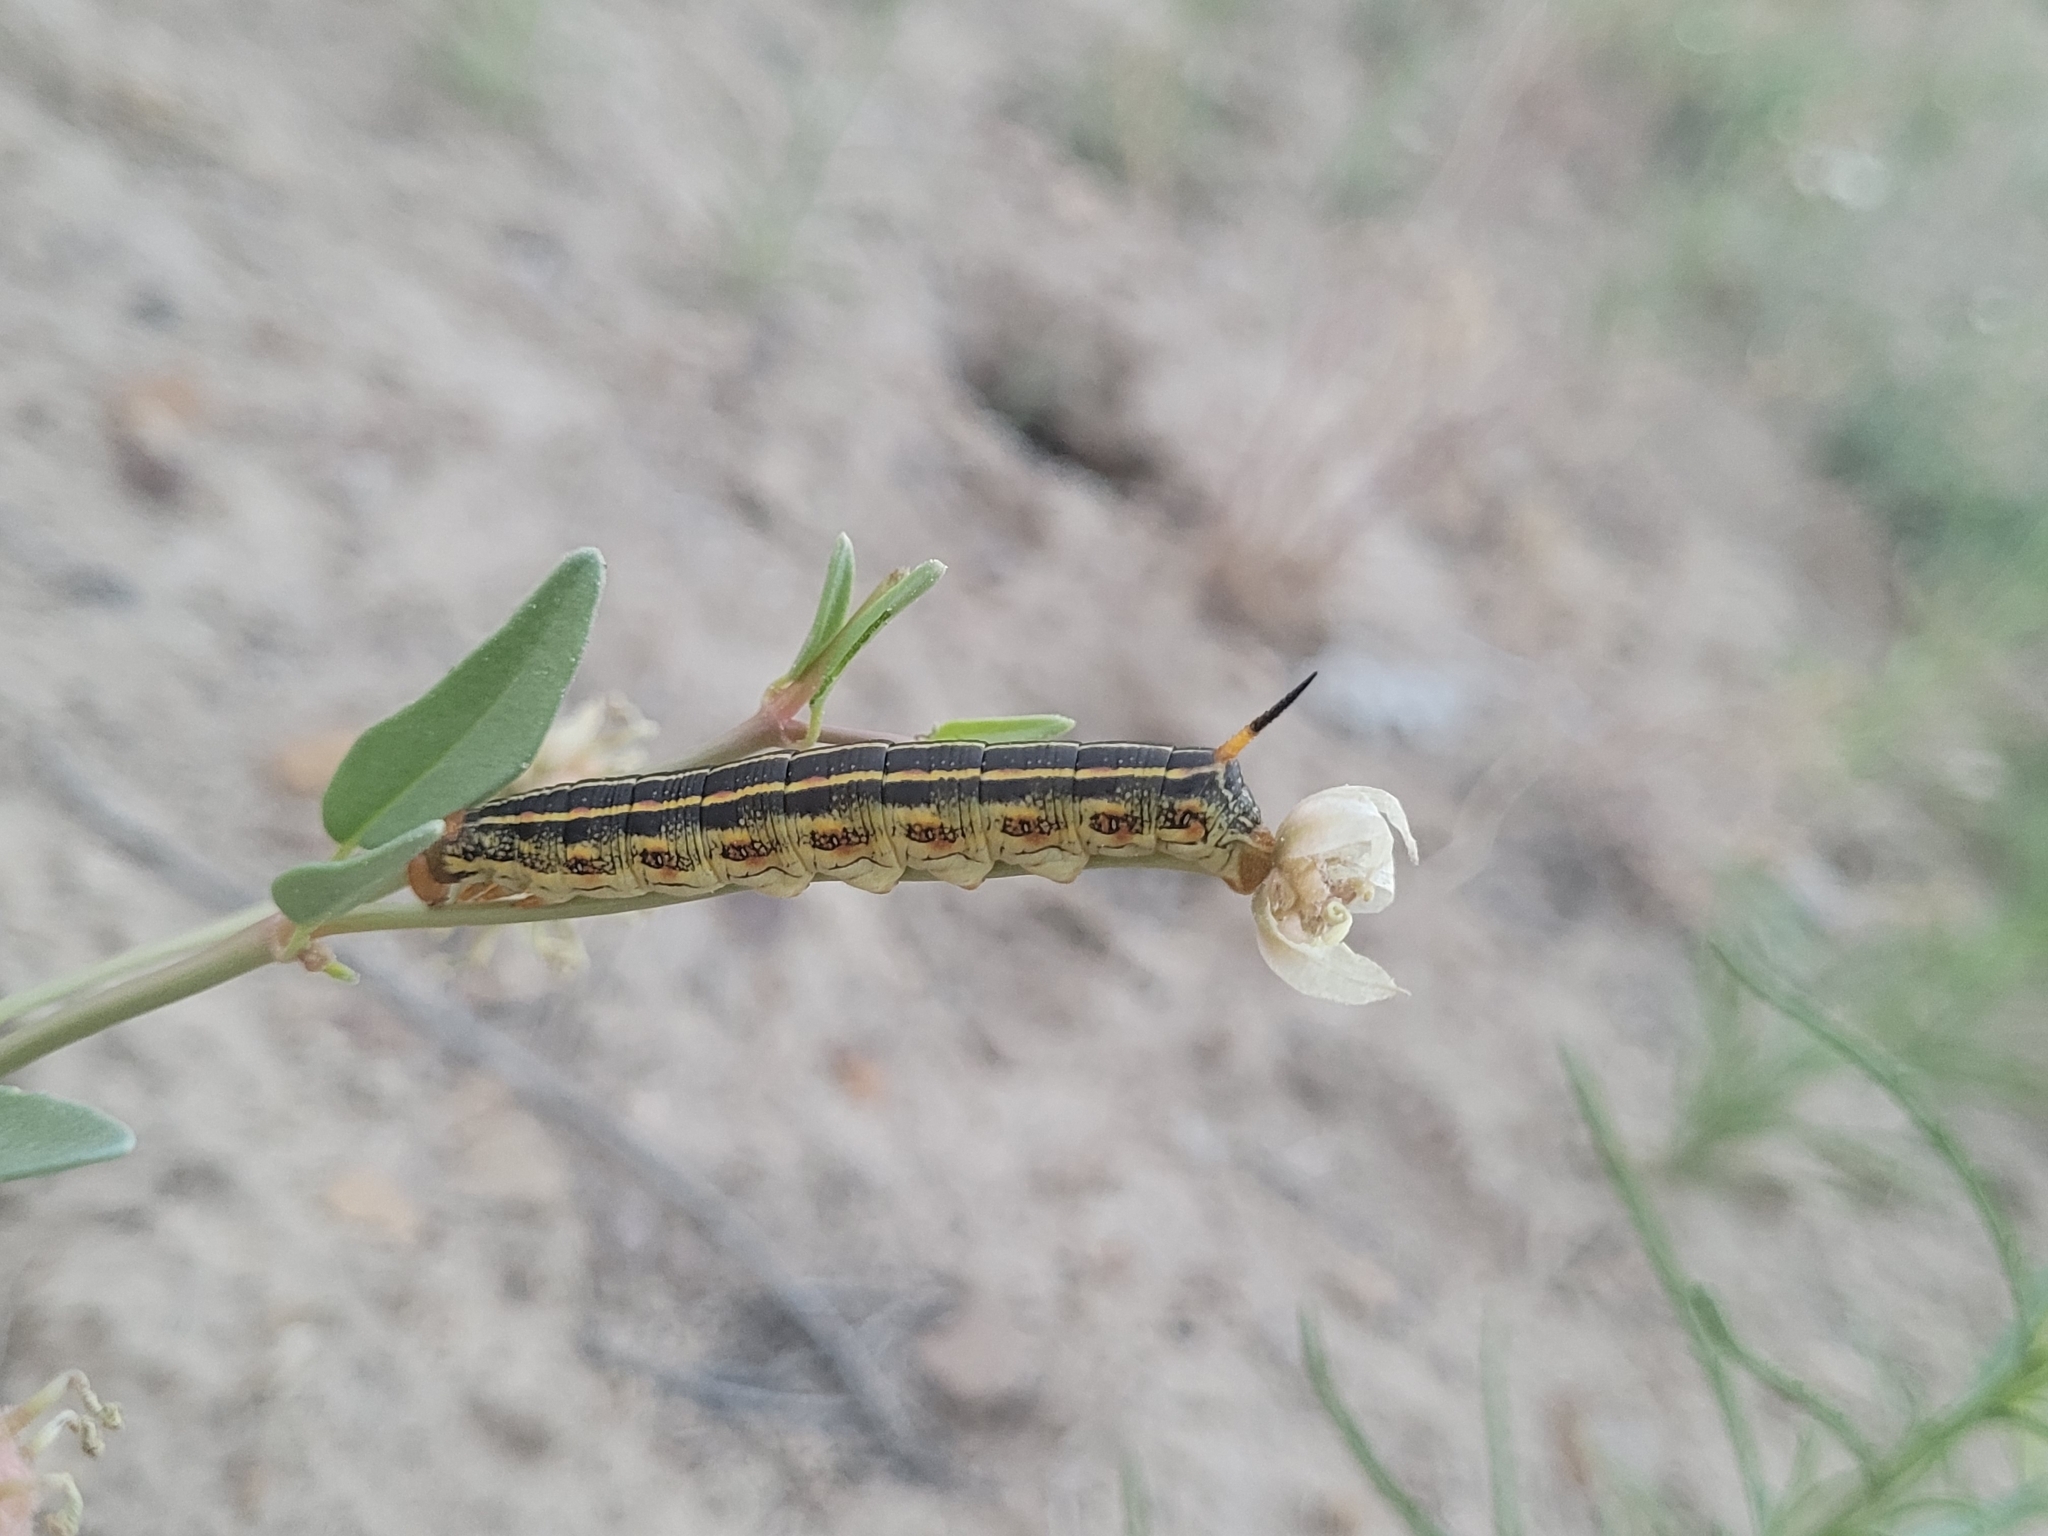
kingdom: Animalia
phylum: Arthropoda
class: Insecta
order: Lepidoptera
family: Sphingidae
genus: Hyles
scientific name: Hyles lineata
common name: White-lined sphinx
